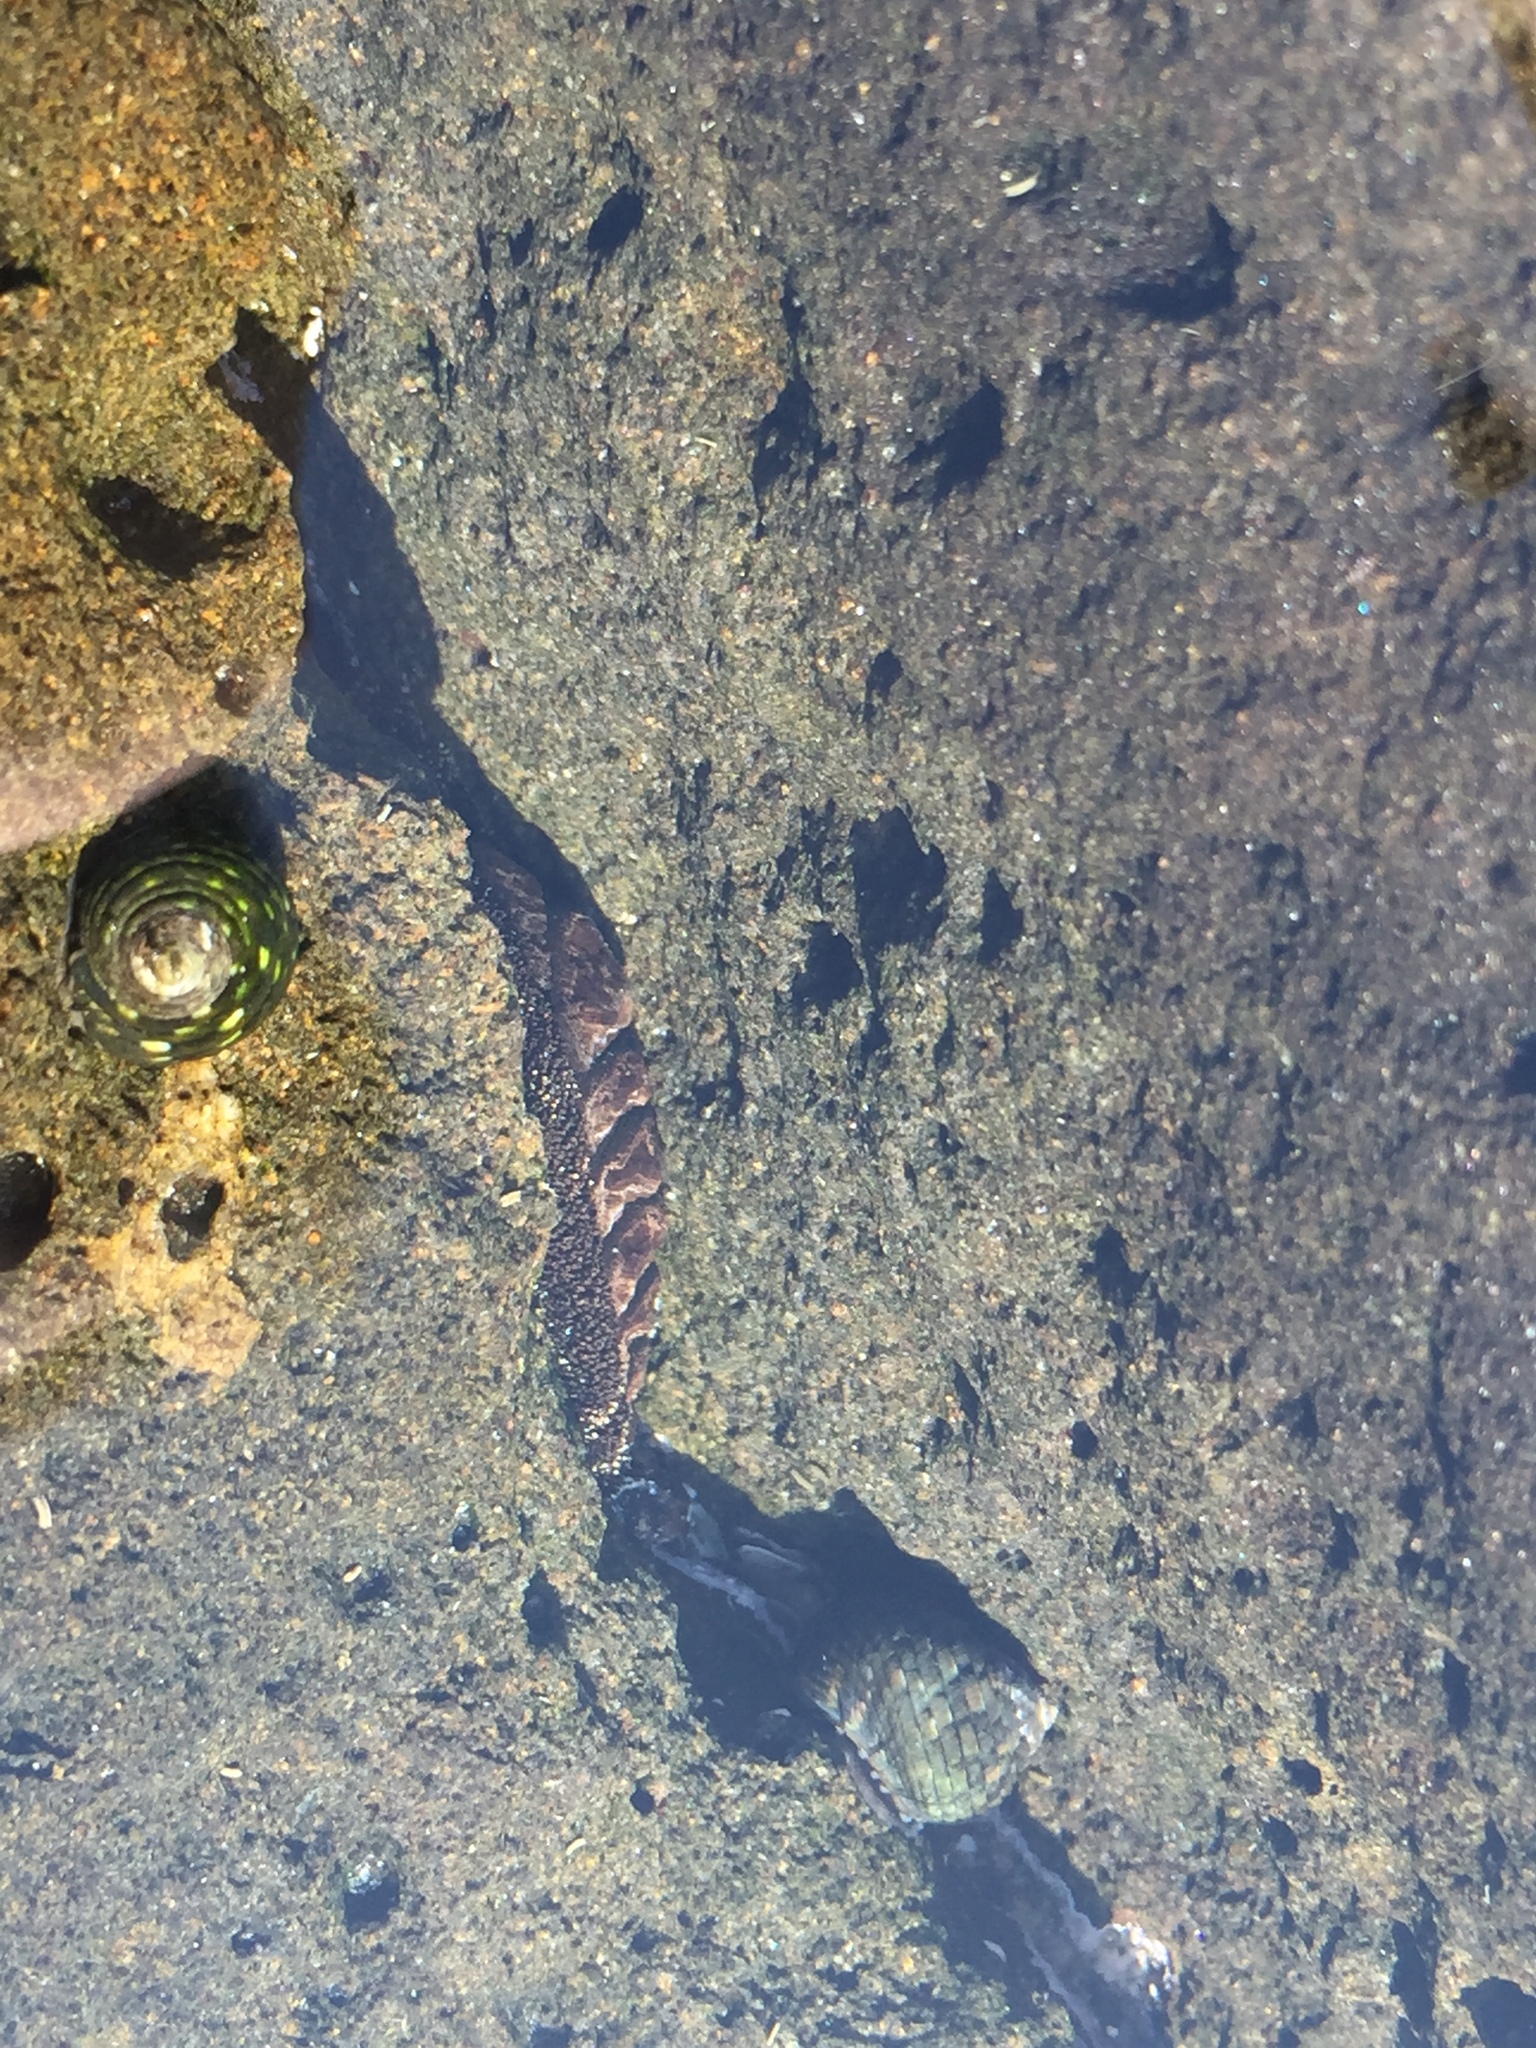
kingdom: Animalia
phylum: Mollusca
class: Polyplacophora
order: Chitonida
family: Chitonidae
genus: Liolophura
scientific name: Liolophura japonica
